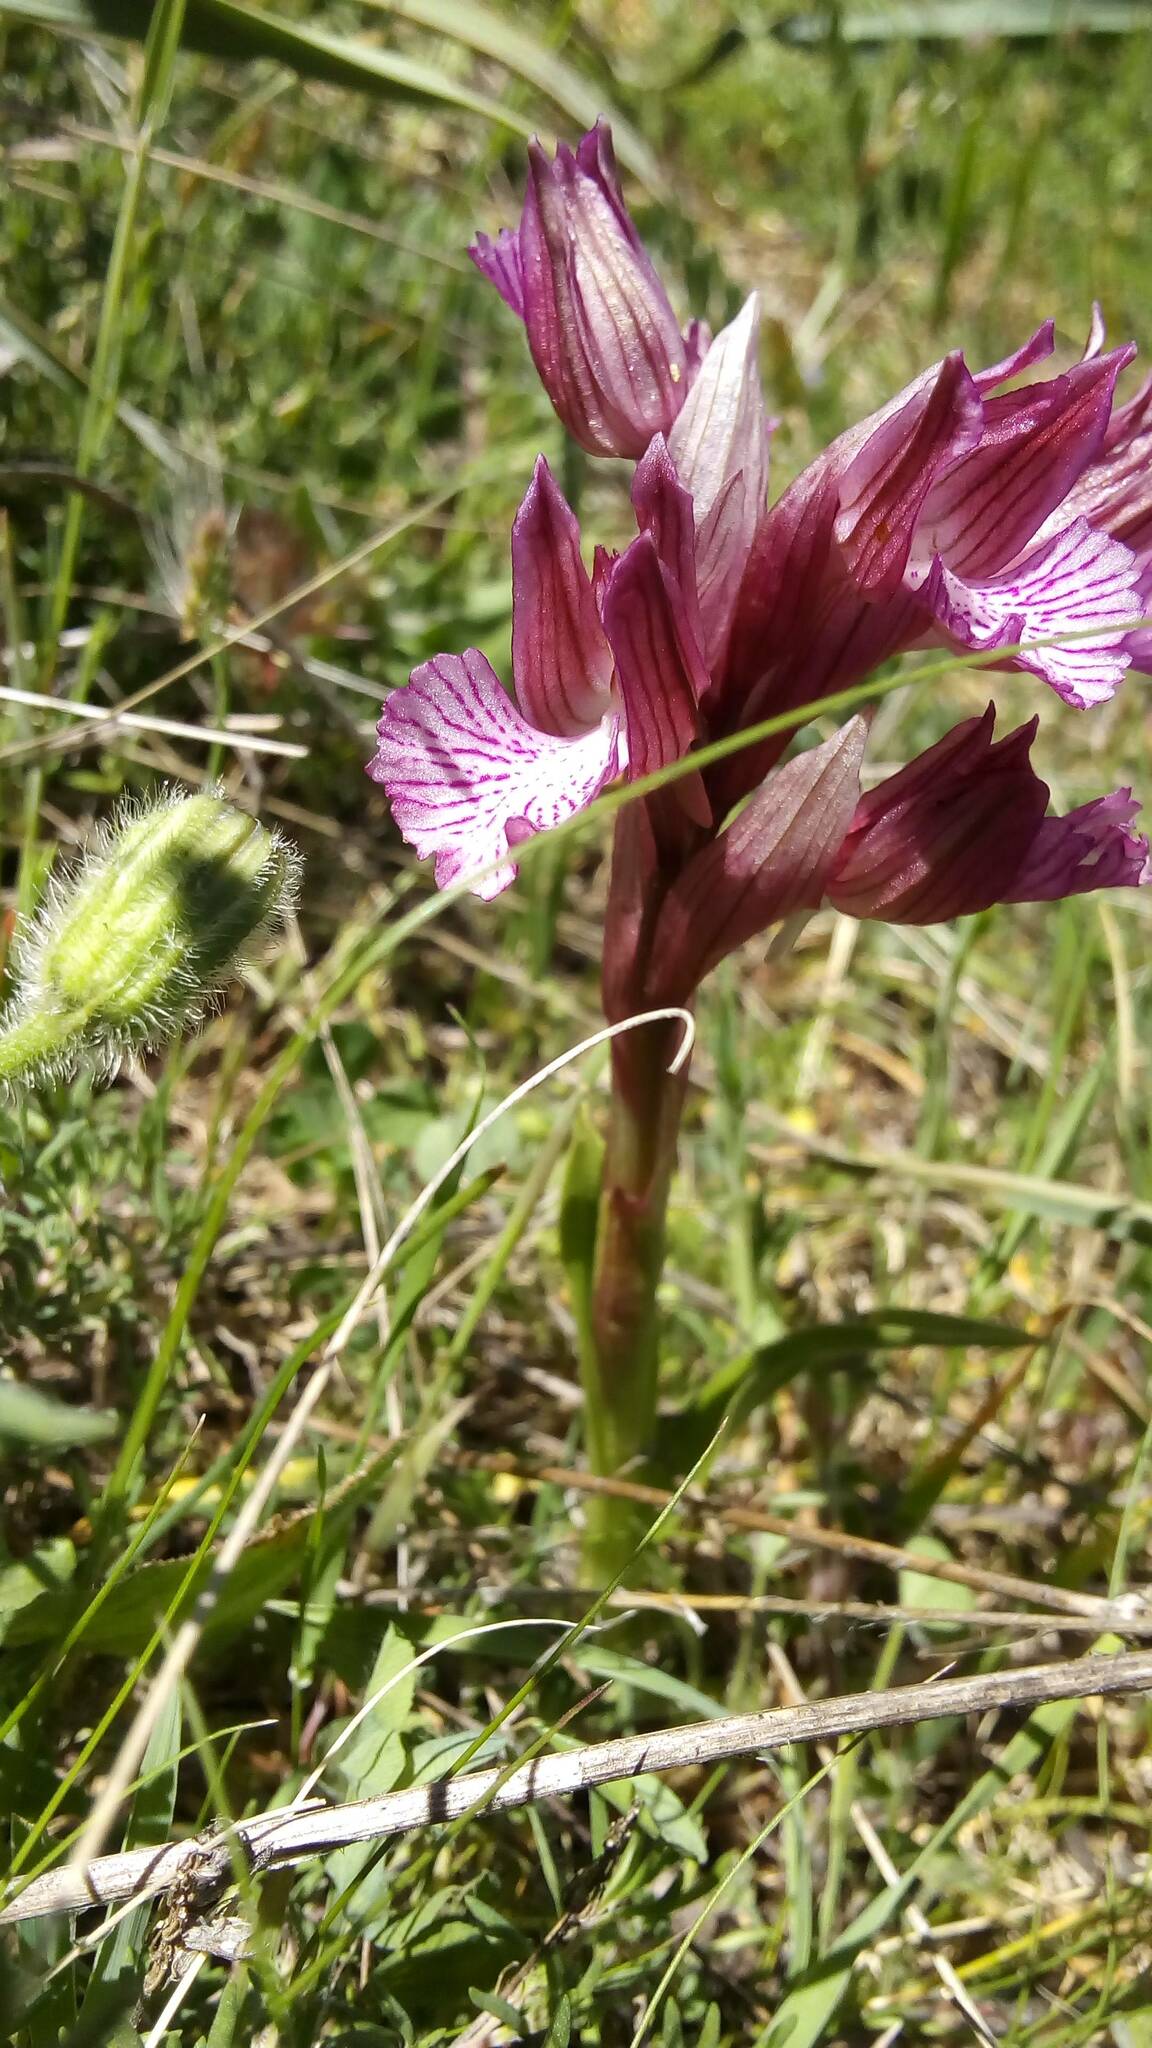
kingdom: Plantae
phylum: Tracheophyta
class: Liliopsida
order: Asparagales
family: Orchidaceae
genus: Anacamptis
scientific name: Anacamptis papilionacea
